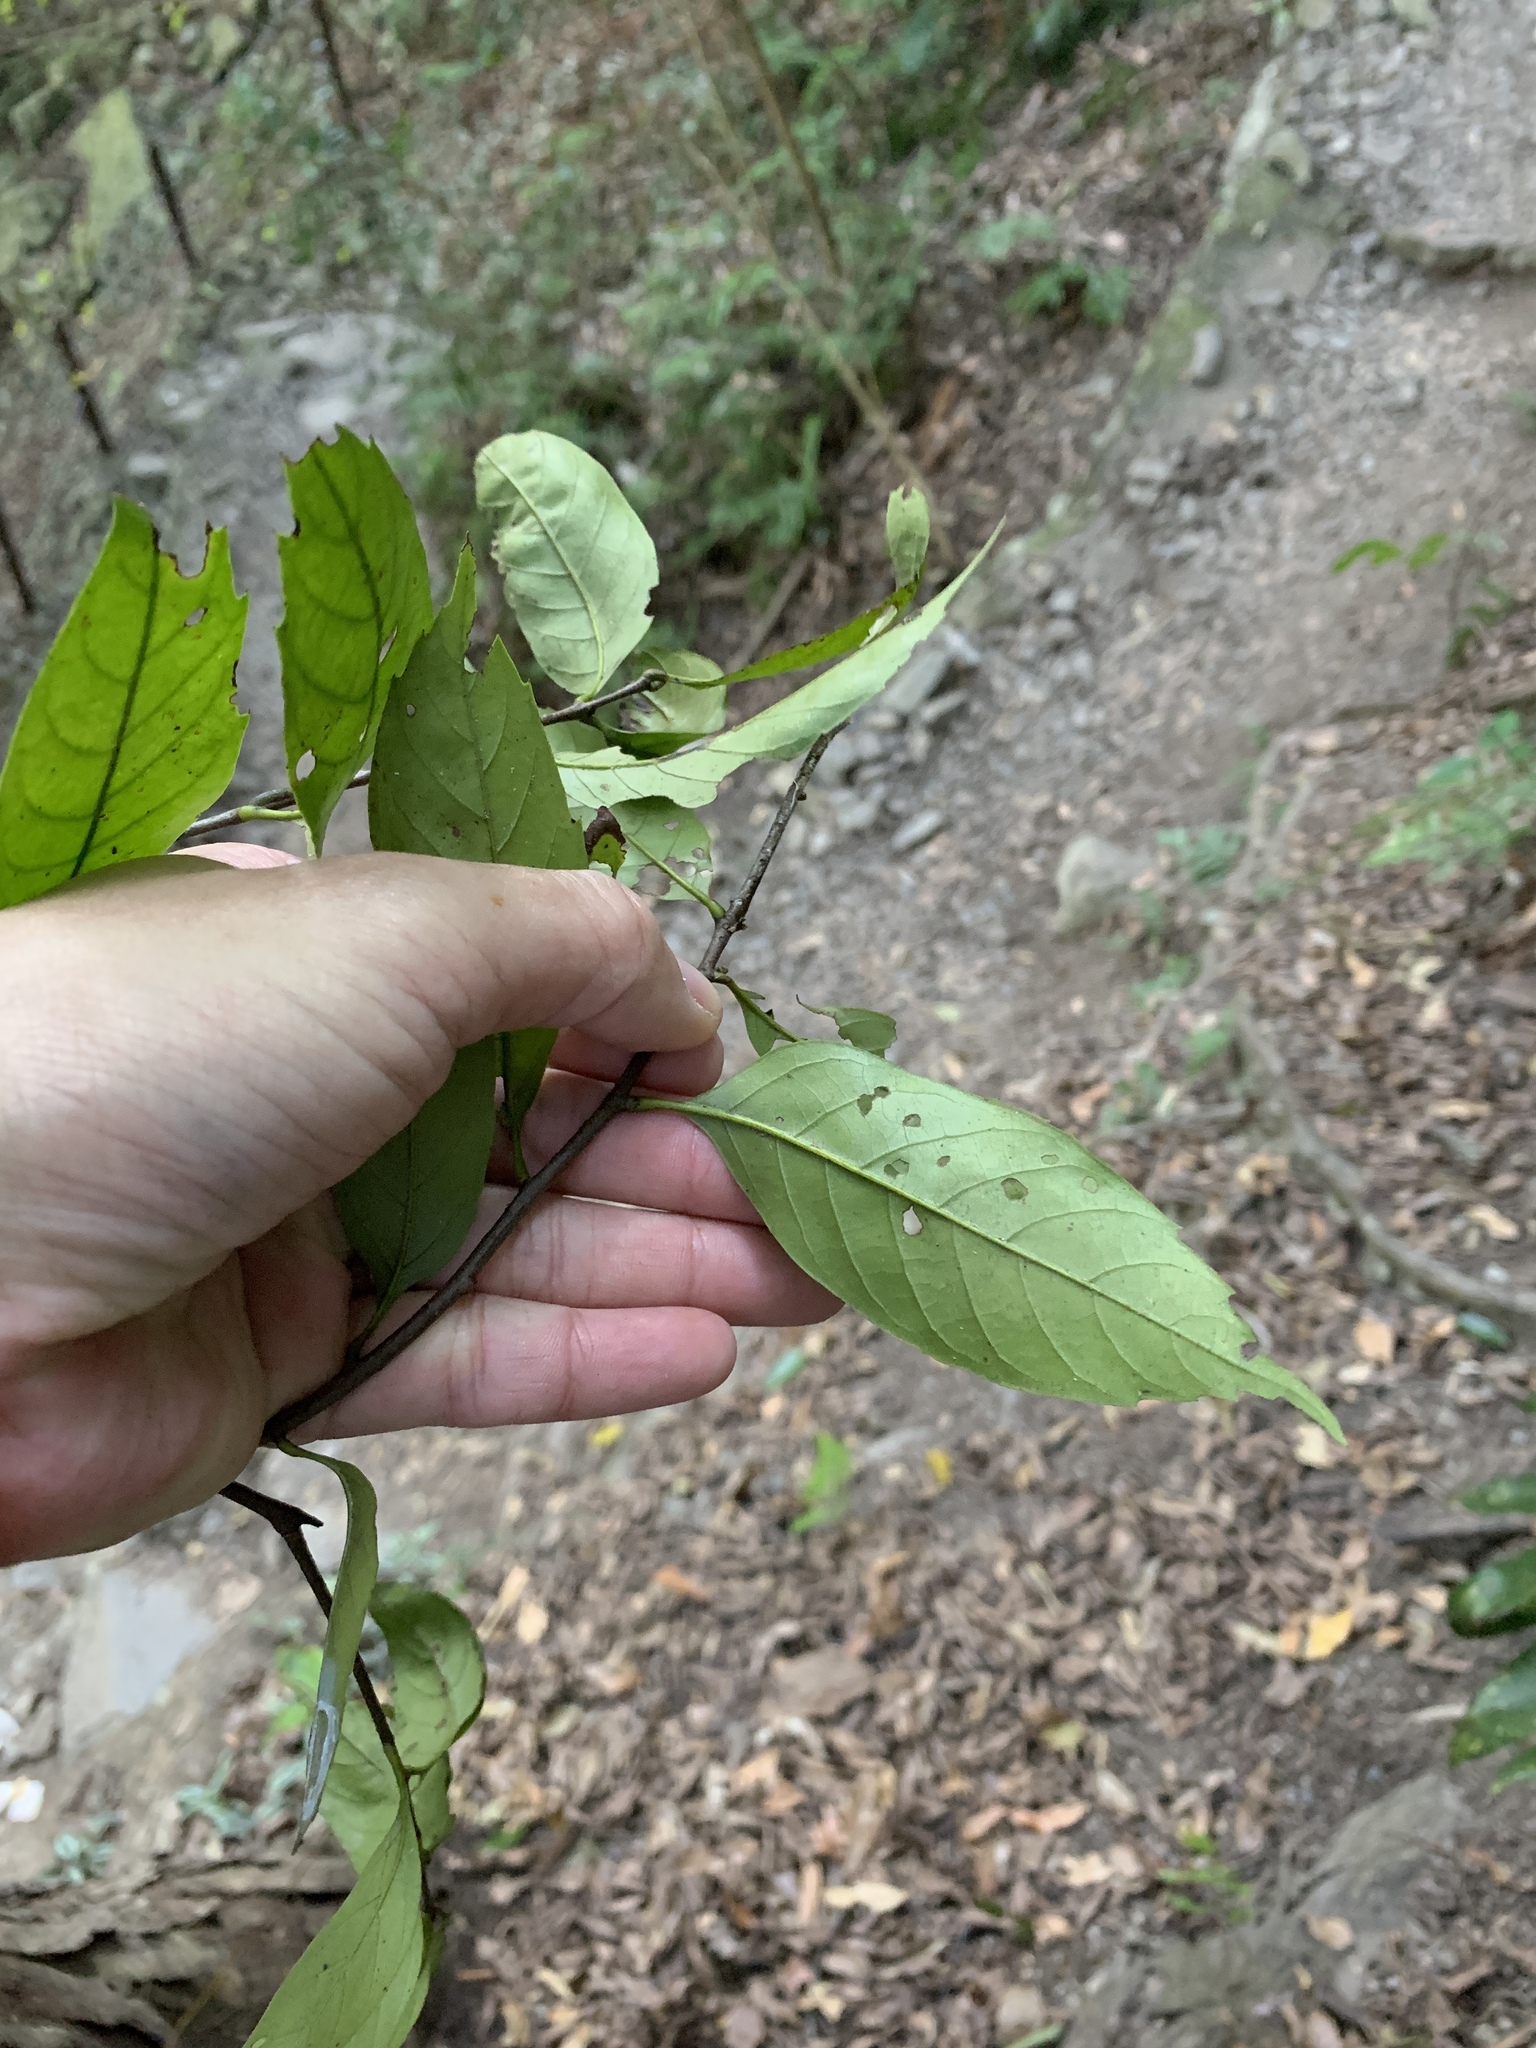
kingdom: Plantae
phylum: Tracheophyta
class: Magnoliopsida
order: Fagales
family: Fagaceae
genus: Castanopsis
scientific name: Castanopsis kawakamii
